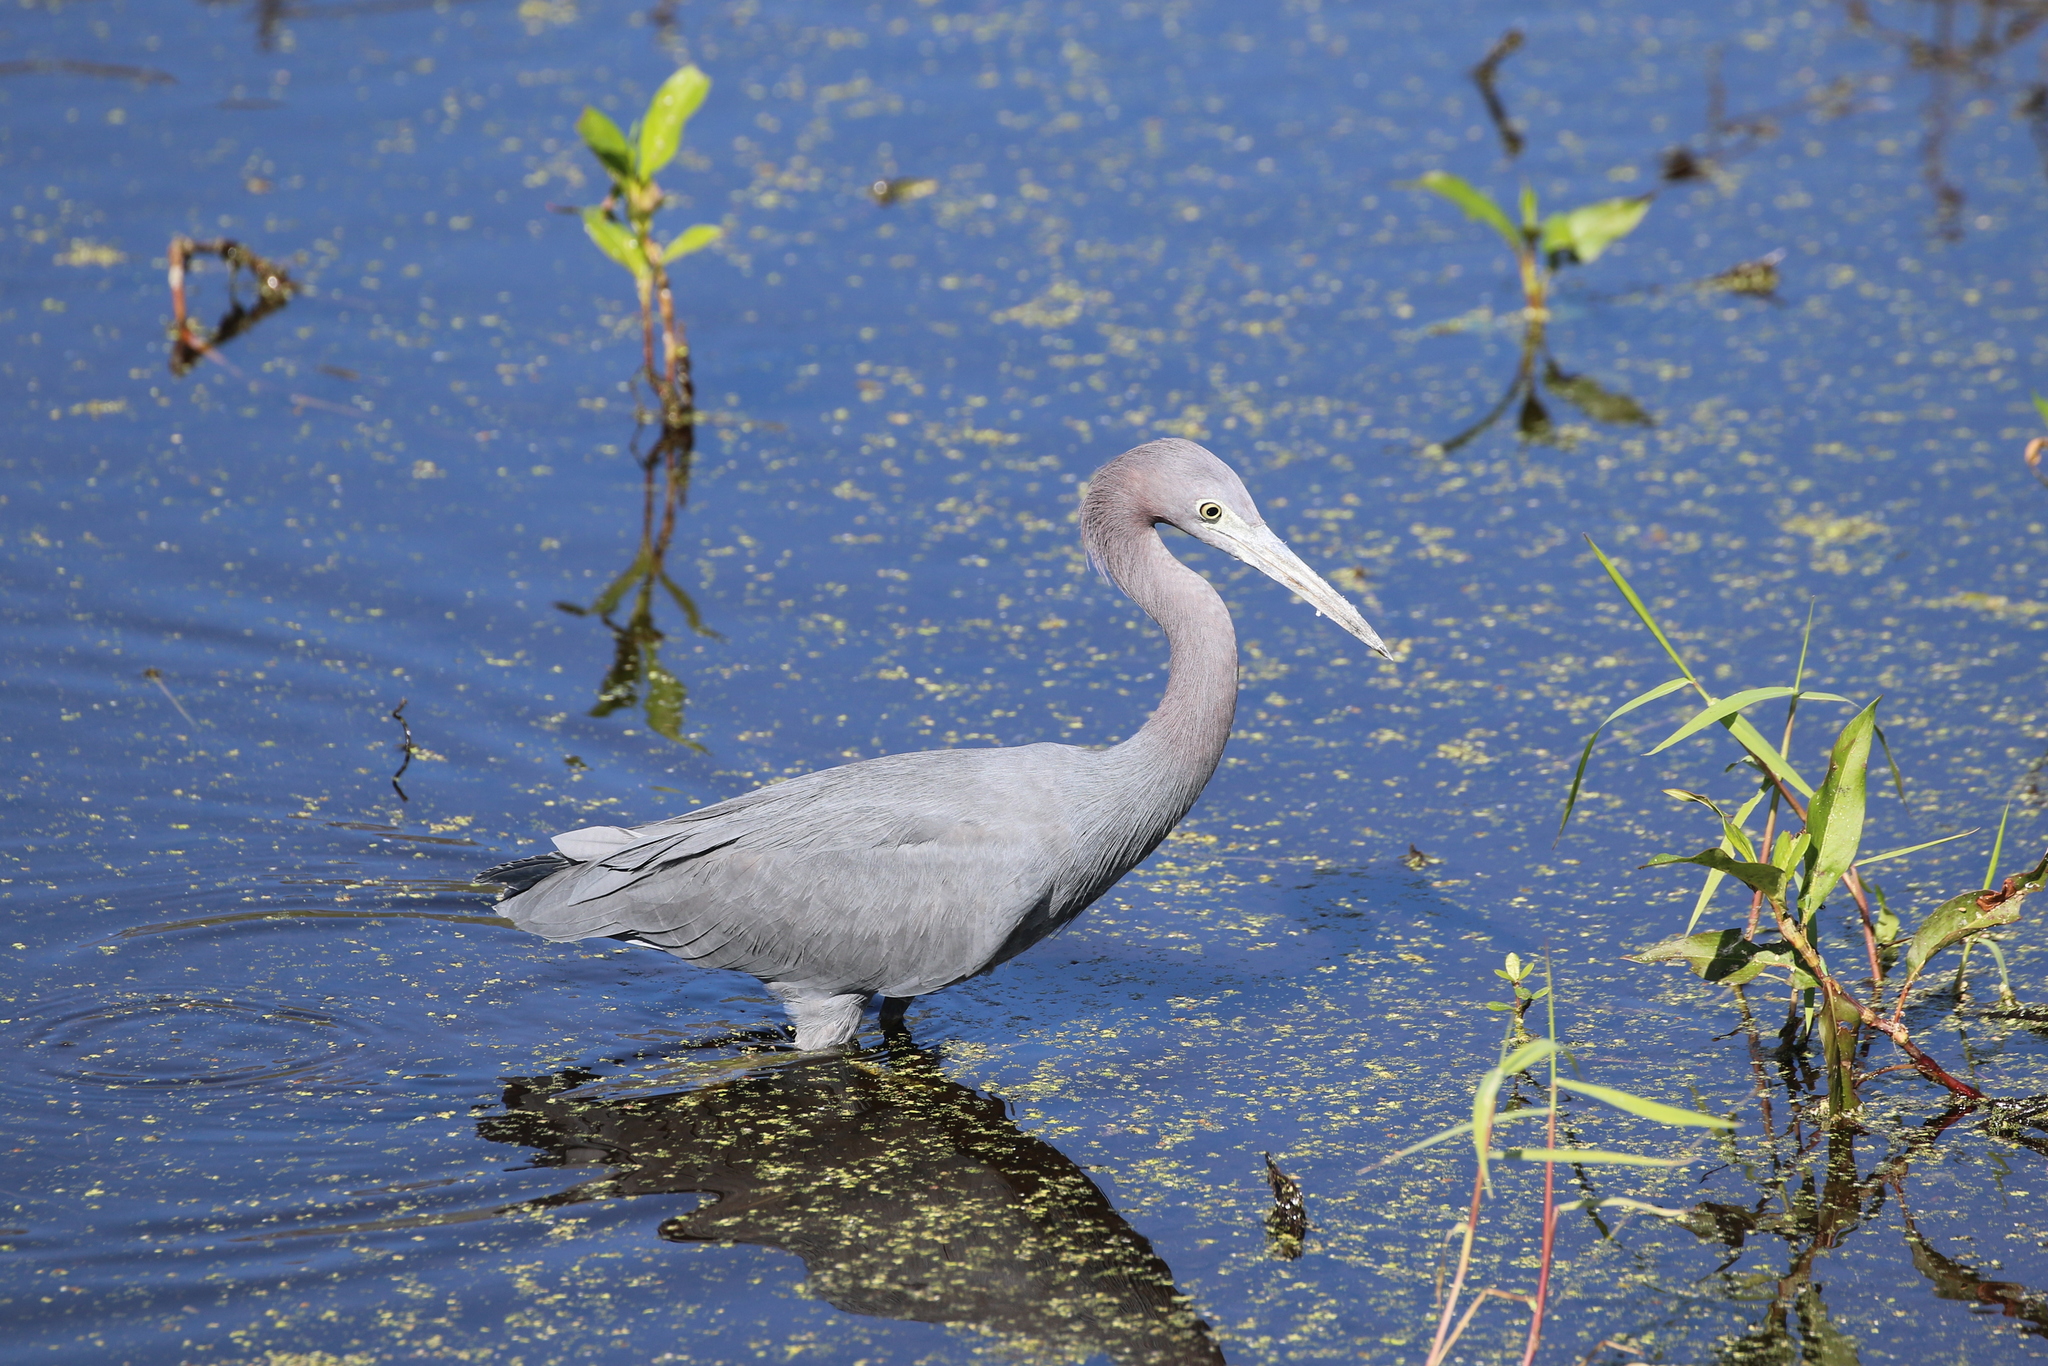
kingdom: Animalia
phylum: Chordata
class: Aves
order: Pelecaniformes
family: Ardeidae
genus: Egretta
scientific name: Egretta caerulea
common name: Little blue heron
